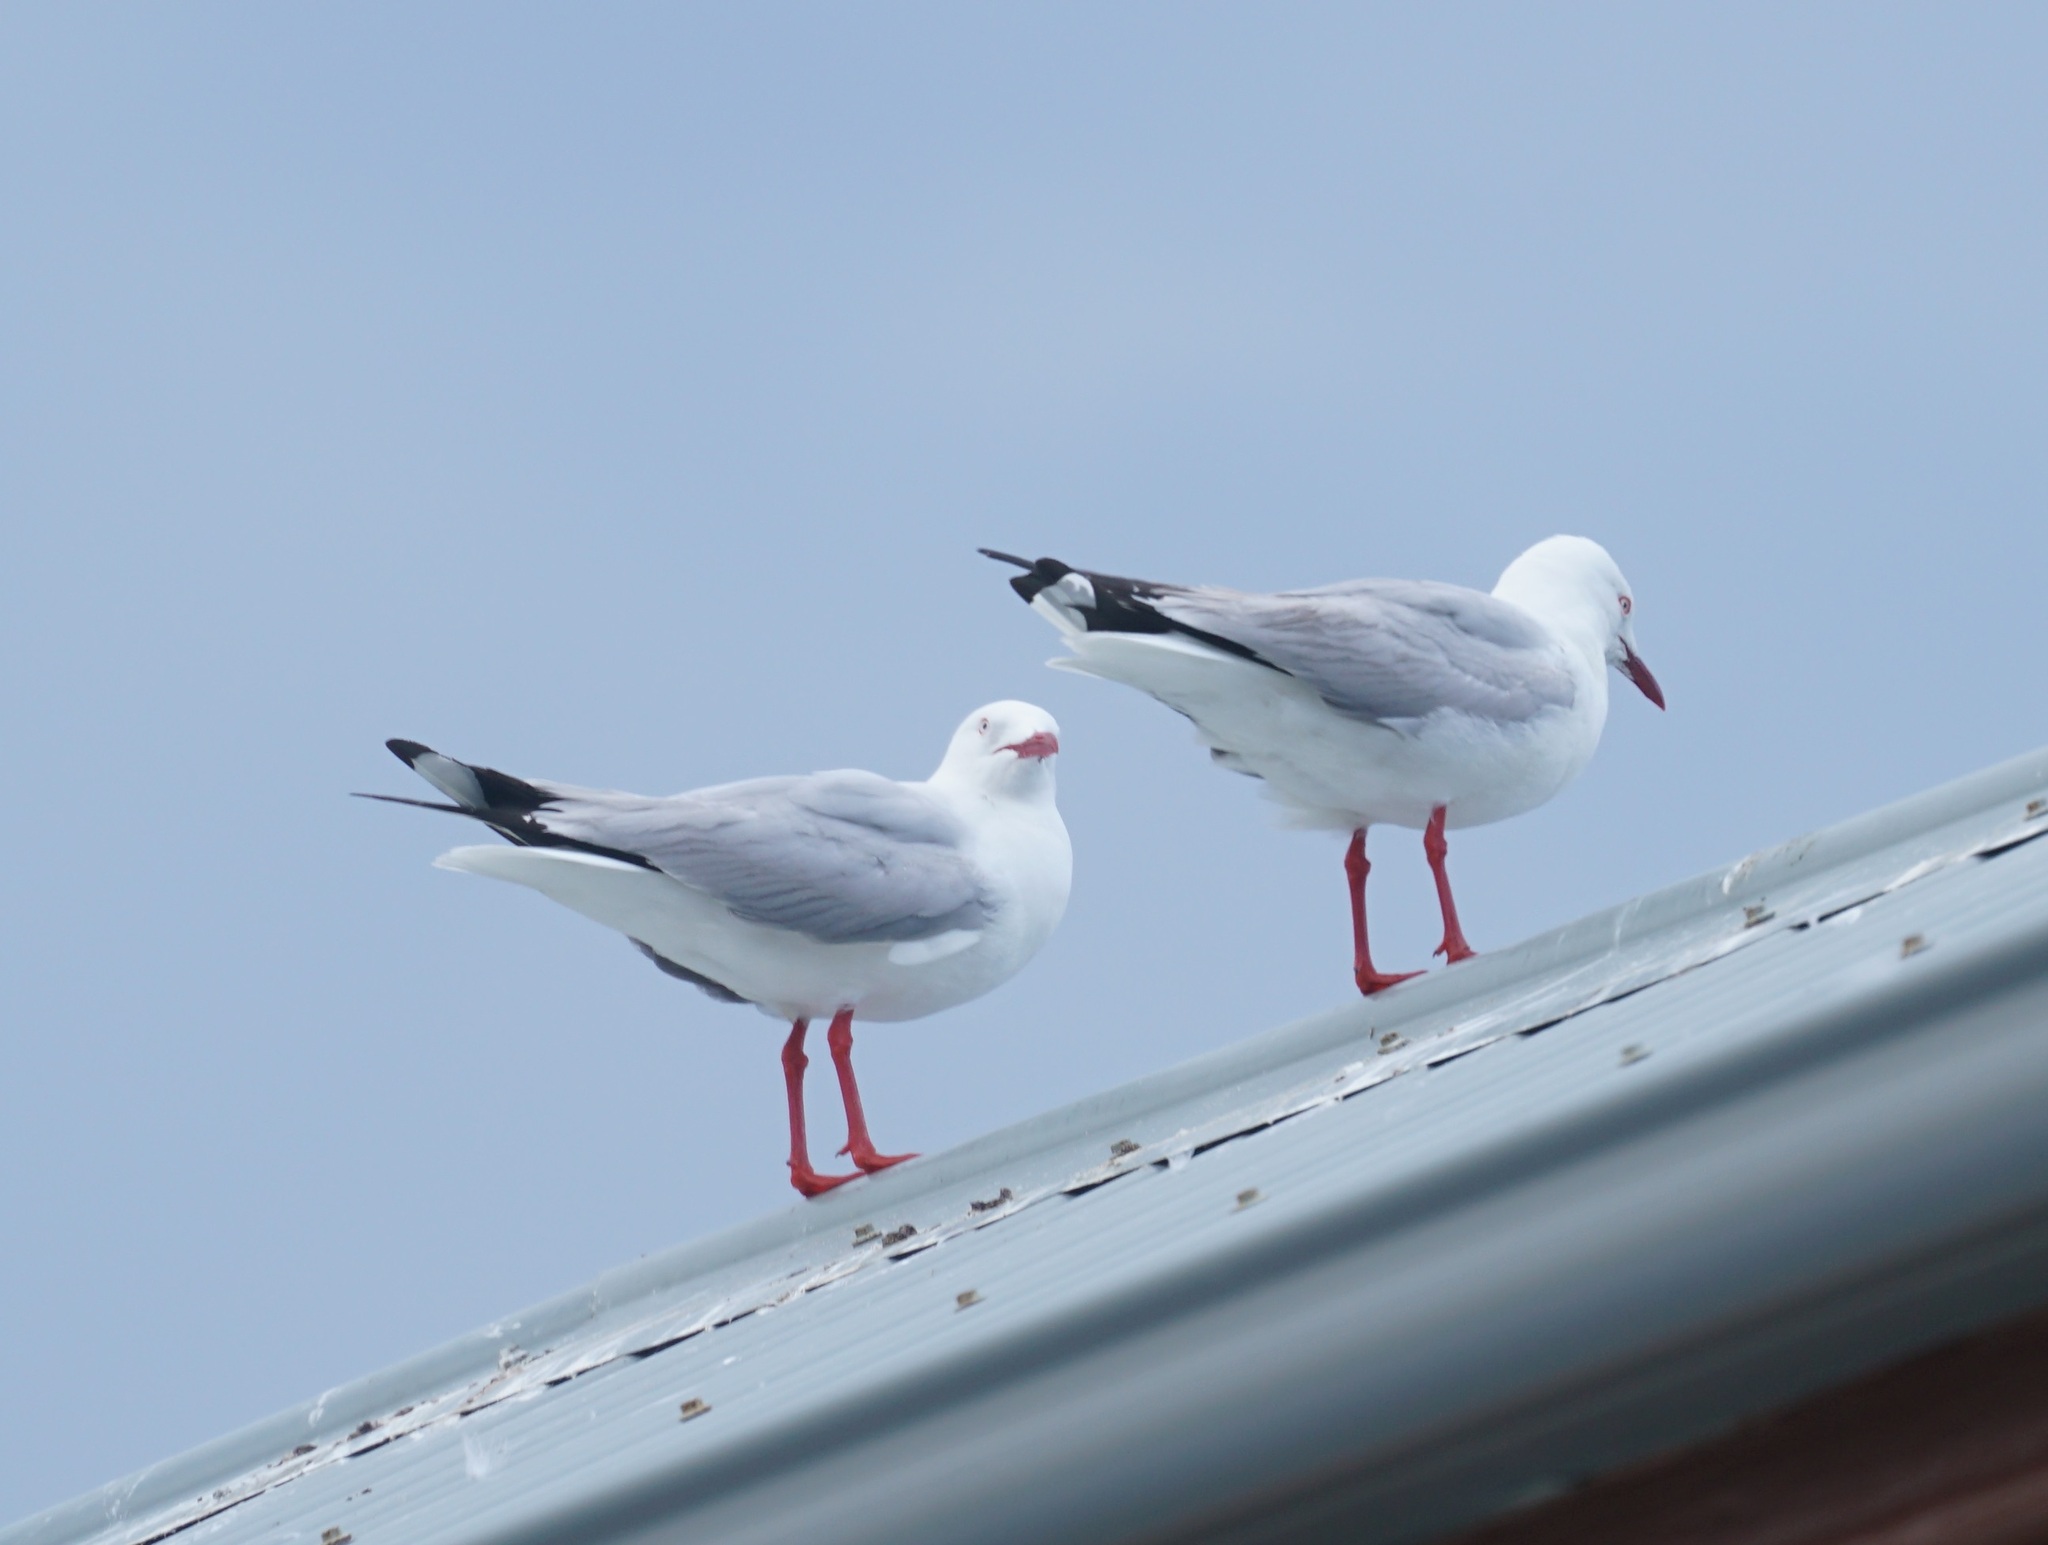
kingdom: Animalia
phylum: Chordata
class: Aves
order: Charadriiformes
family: Laridae
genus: Chroicocephalus
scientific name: Chroicocephalus novaehollandiae
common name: Silver gull
